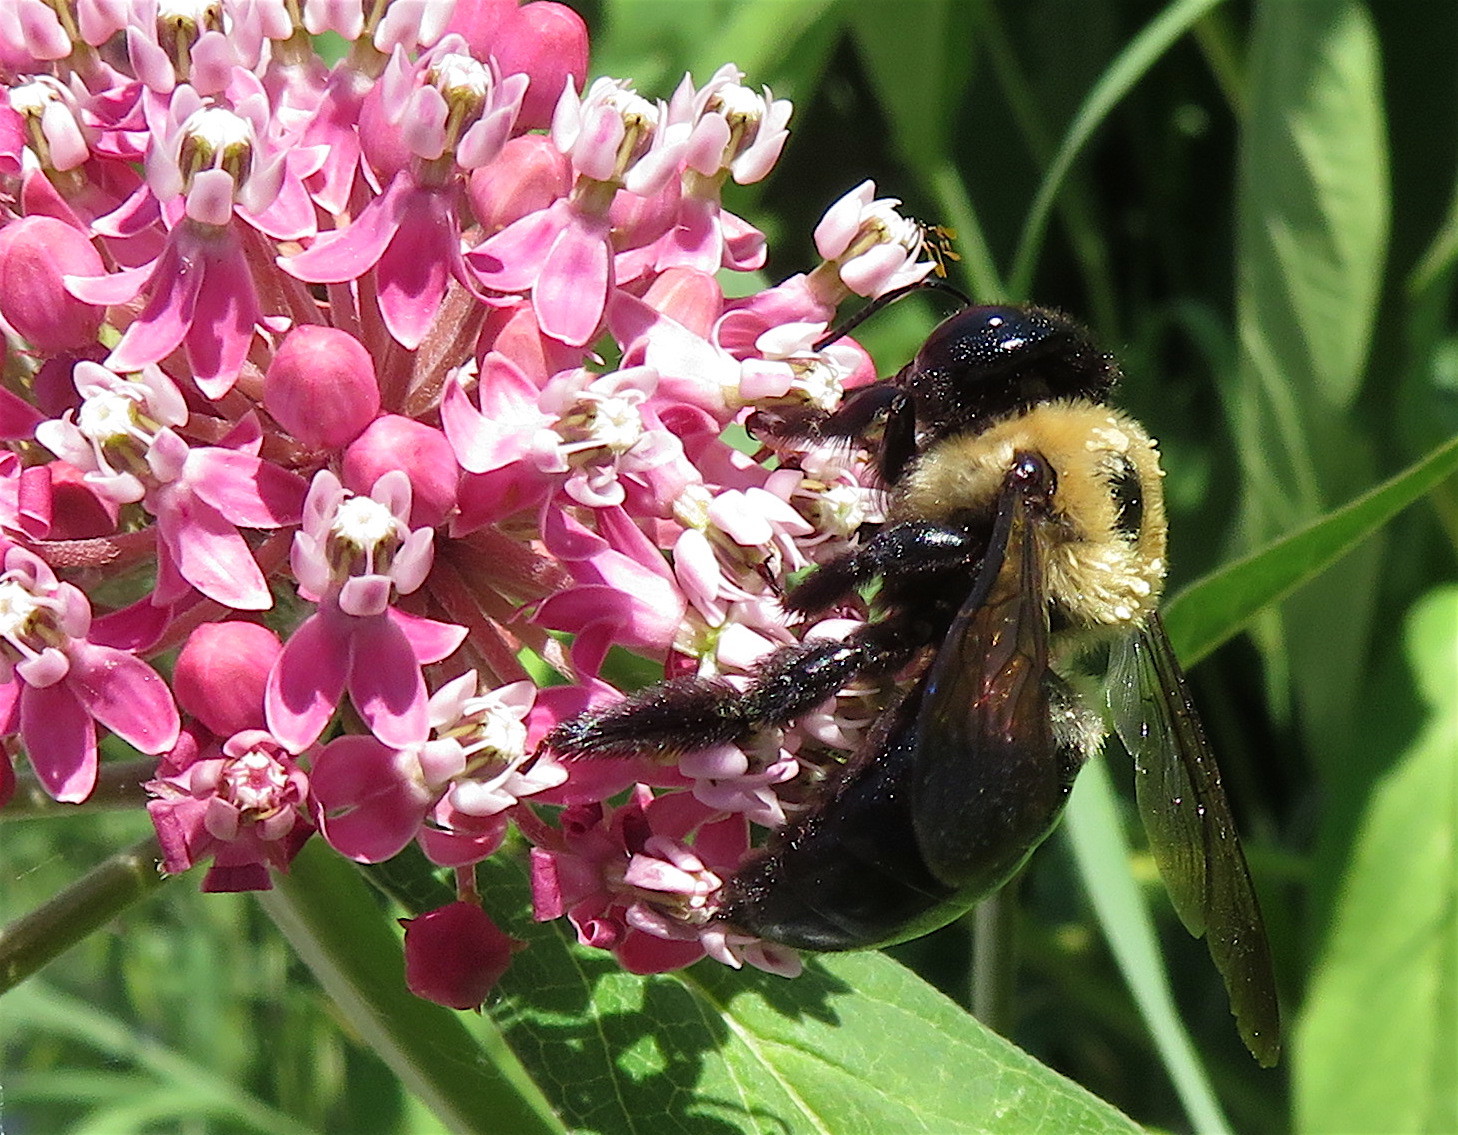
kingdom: Animalia
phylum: Arthropoda
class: Insecta
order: Hymenoptera
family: Apidae
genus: Xylocopa
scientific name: Xylocopa virginica
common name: Carpenter bee
